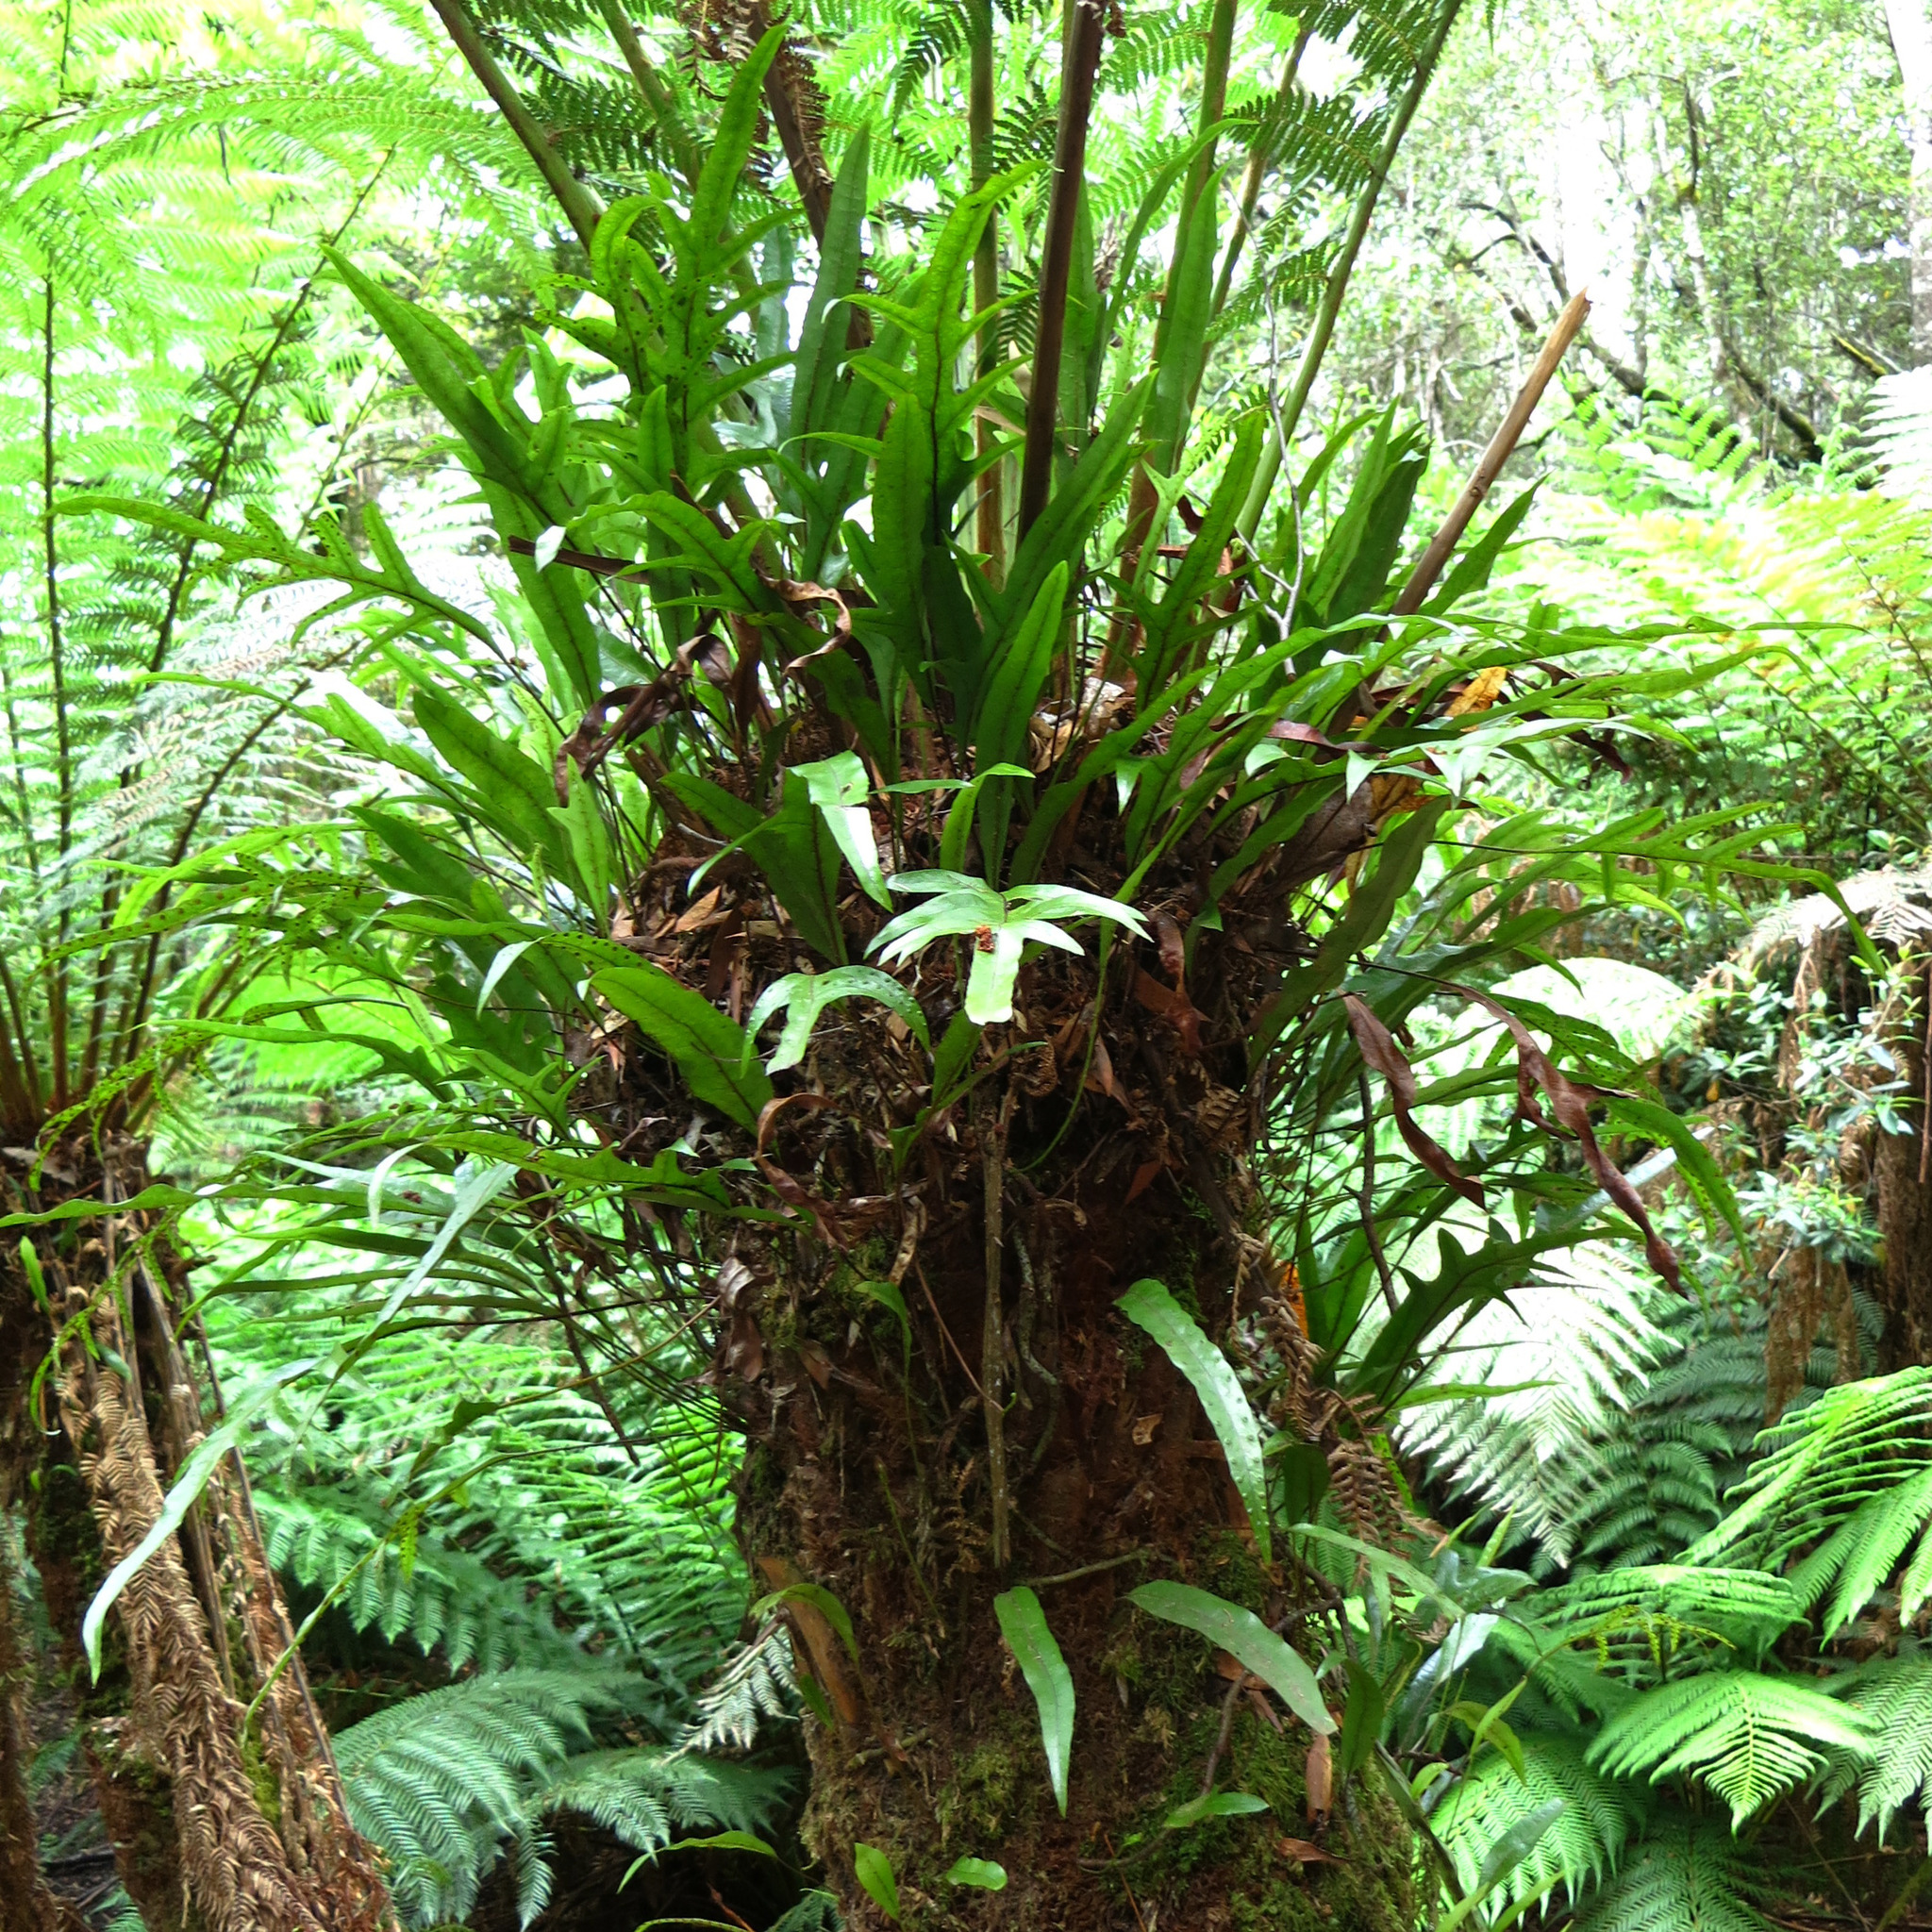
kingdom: Plantae
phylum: Tracheophyta
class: Polypodiopsida
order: Polypodiales
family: Polypodiaceae
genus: Lecanopteris
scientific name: Lecanopteris pustulata
